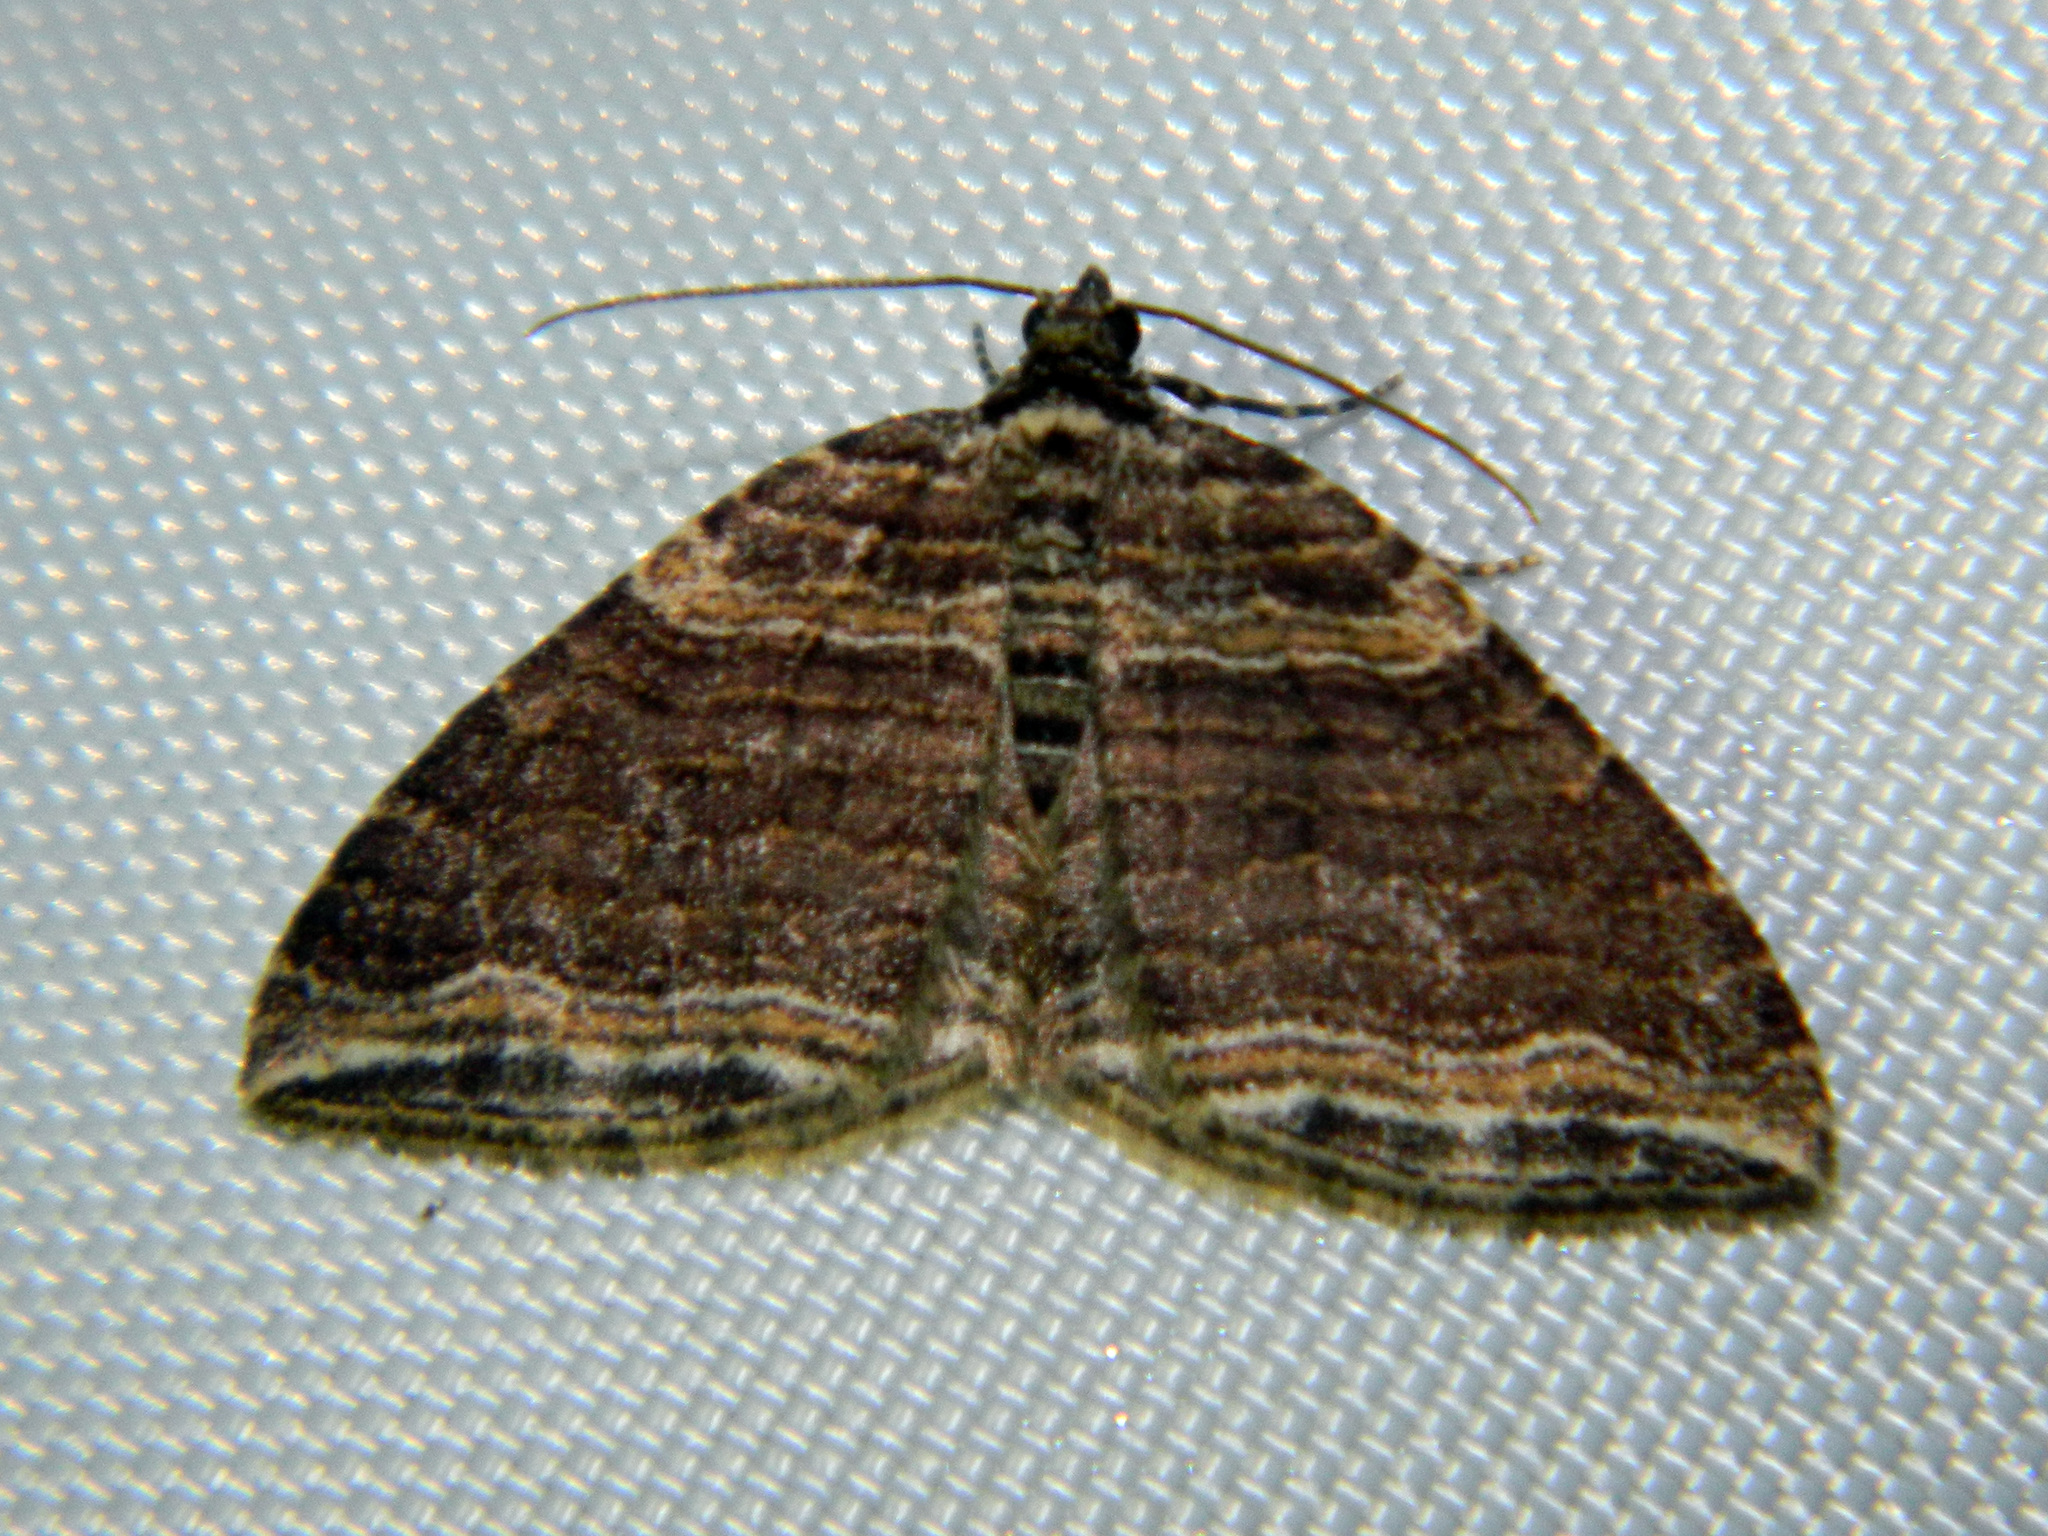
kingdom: Animalia
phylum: Arthropoda
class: Insecta
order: Lepidoptera
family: Geometridae
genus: Anticlea
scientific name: Anticlea multiferata
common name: Many-lined carpet
